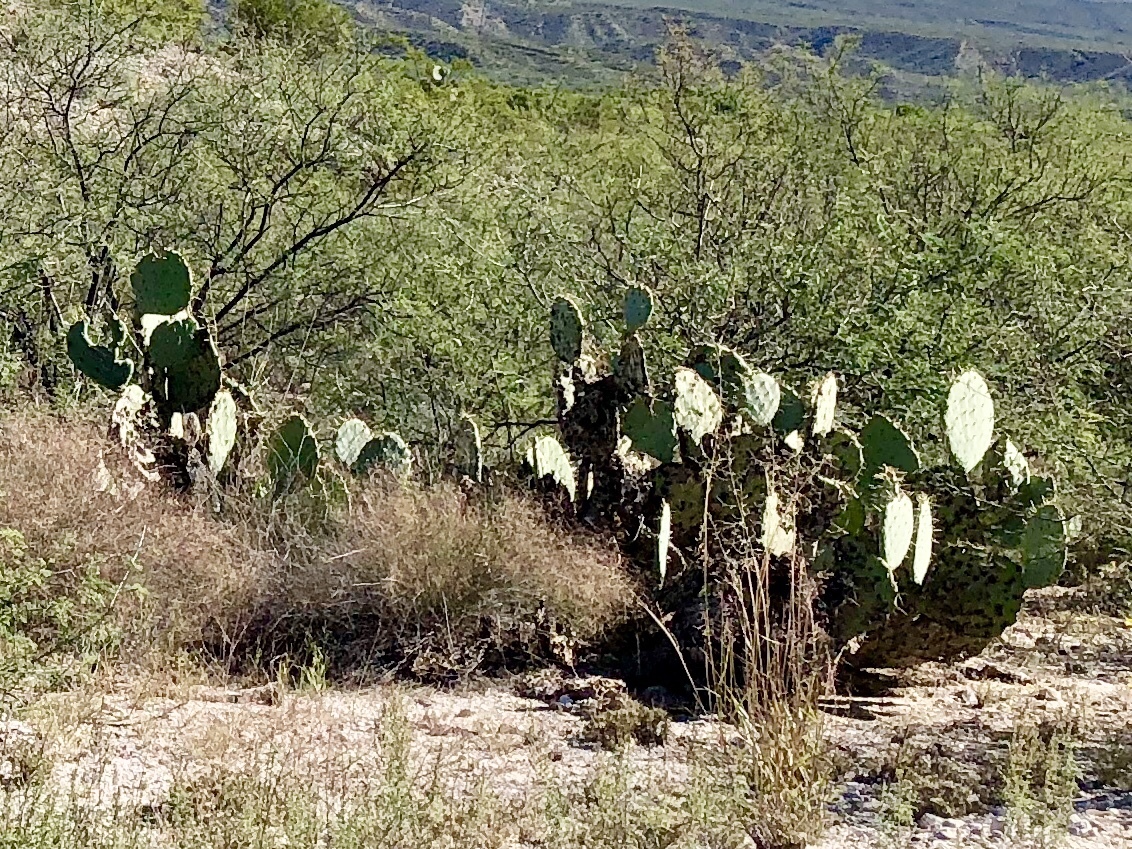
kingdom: Plantae
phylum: Tracheophyta
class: Magnoliopsida
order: Caryophyllales
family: Cactaceae
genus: Opuntia
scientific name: Opuntia engelmannii
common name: Cactus-apple
